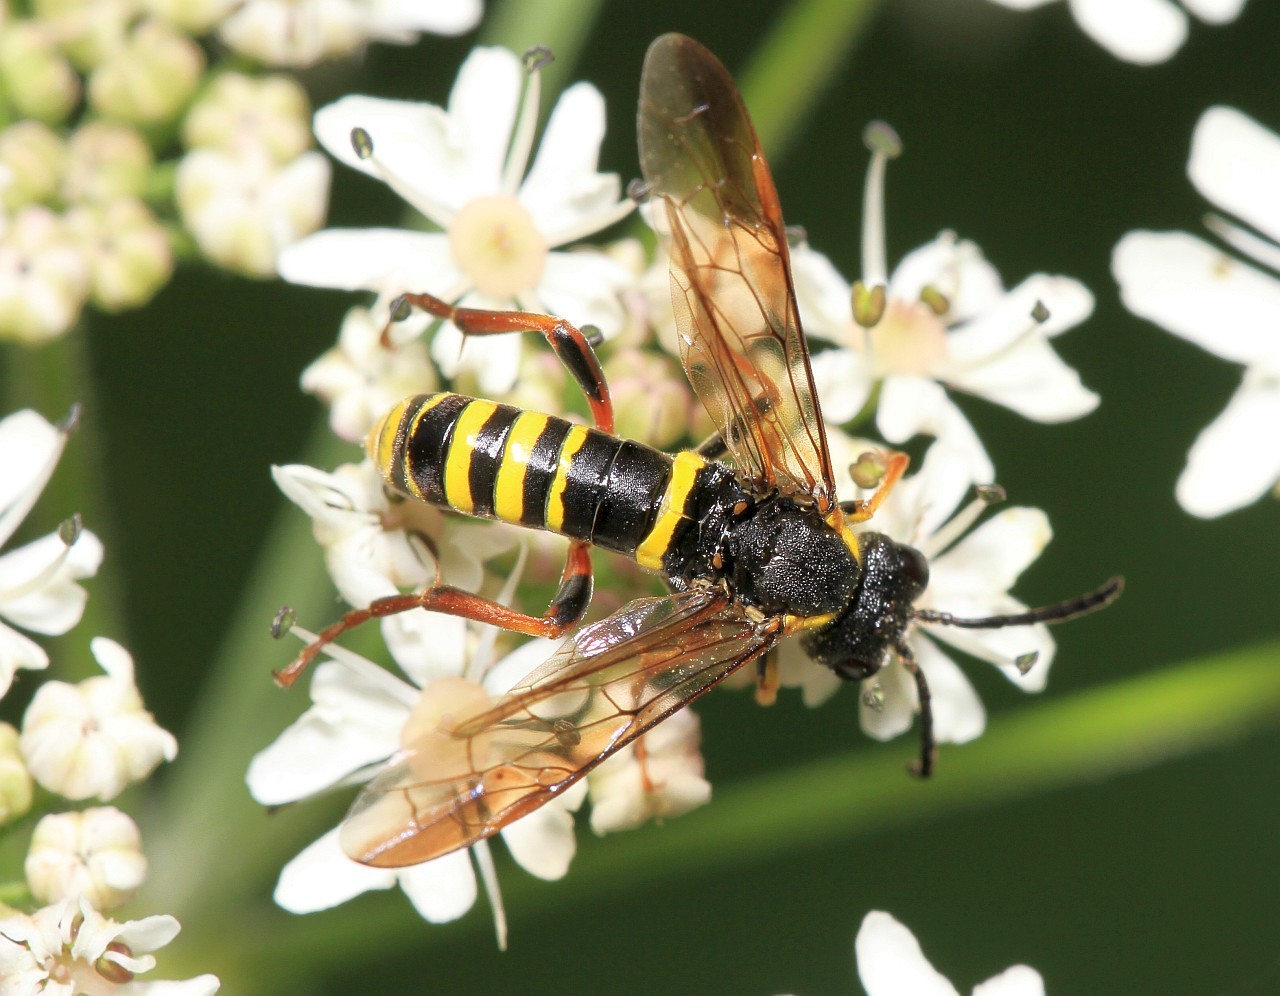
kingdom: Animalia
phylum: Arthropoda
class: Insecta
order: Hymenoptera
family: Tenthredinidae
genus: Tenthredo
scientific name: Tenthredo vespa
